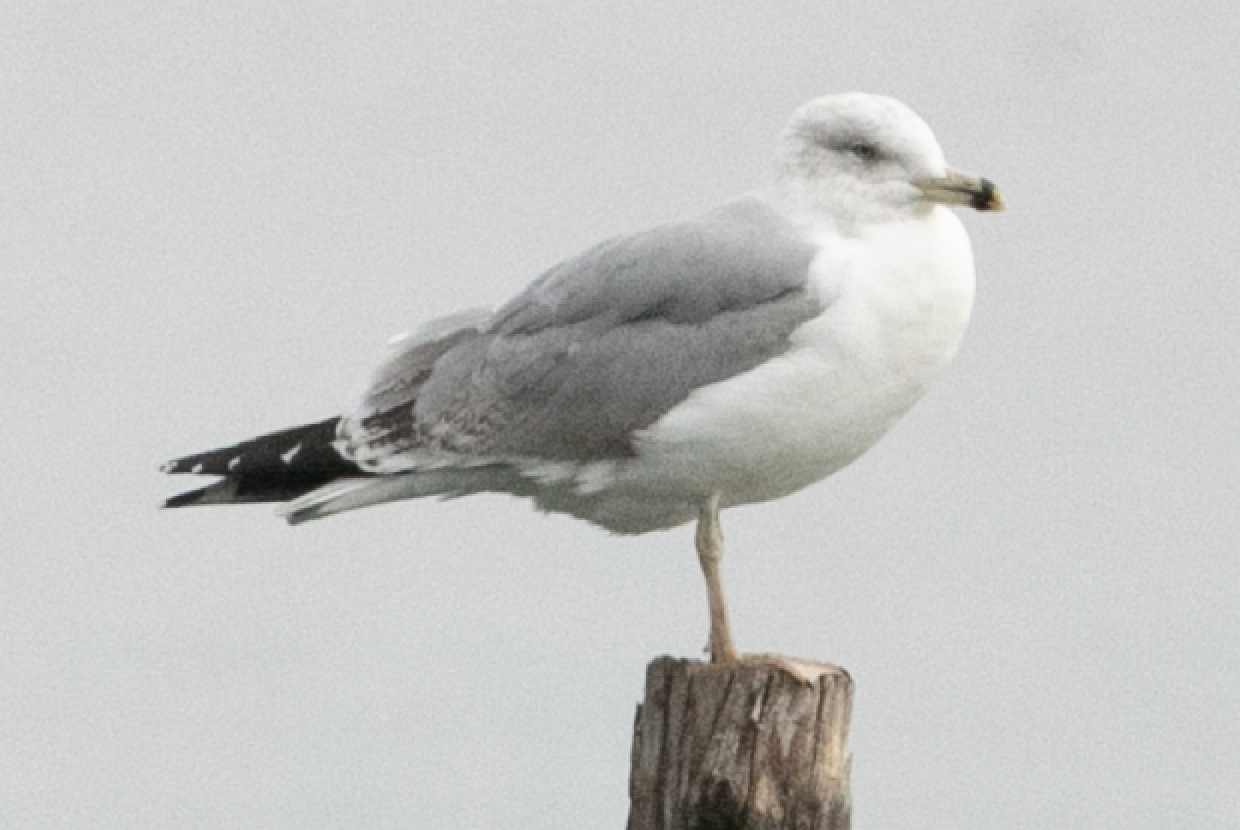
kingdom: Animalia
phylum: Chordata
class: Aves
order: Charadriiformes
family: Laridae
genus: Larus
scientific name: Larus michahellis
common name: Yellow-legged gull
